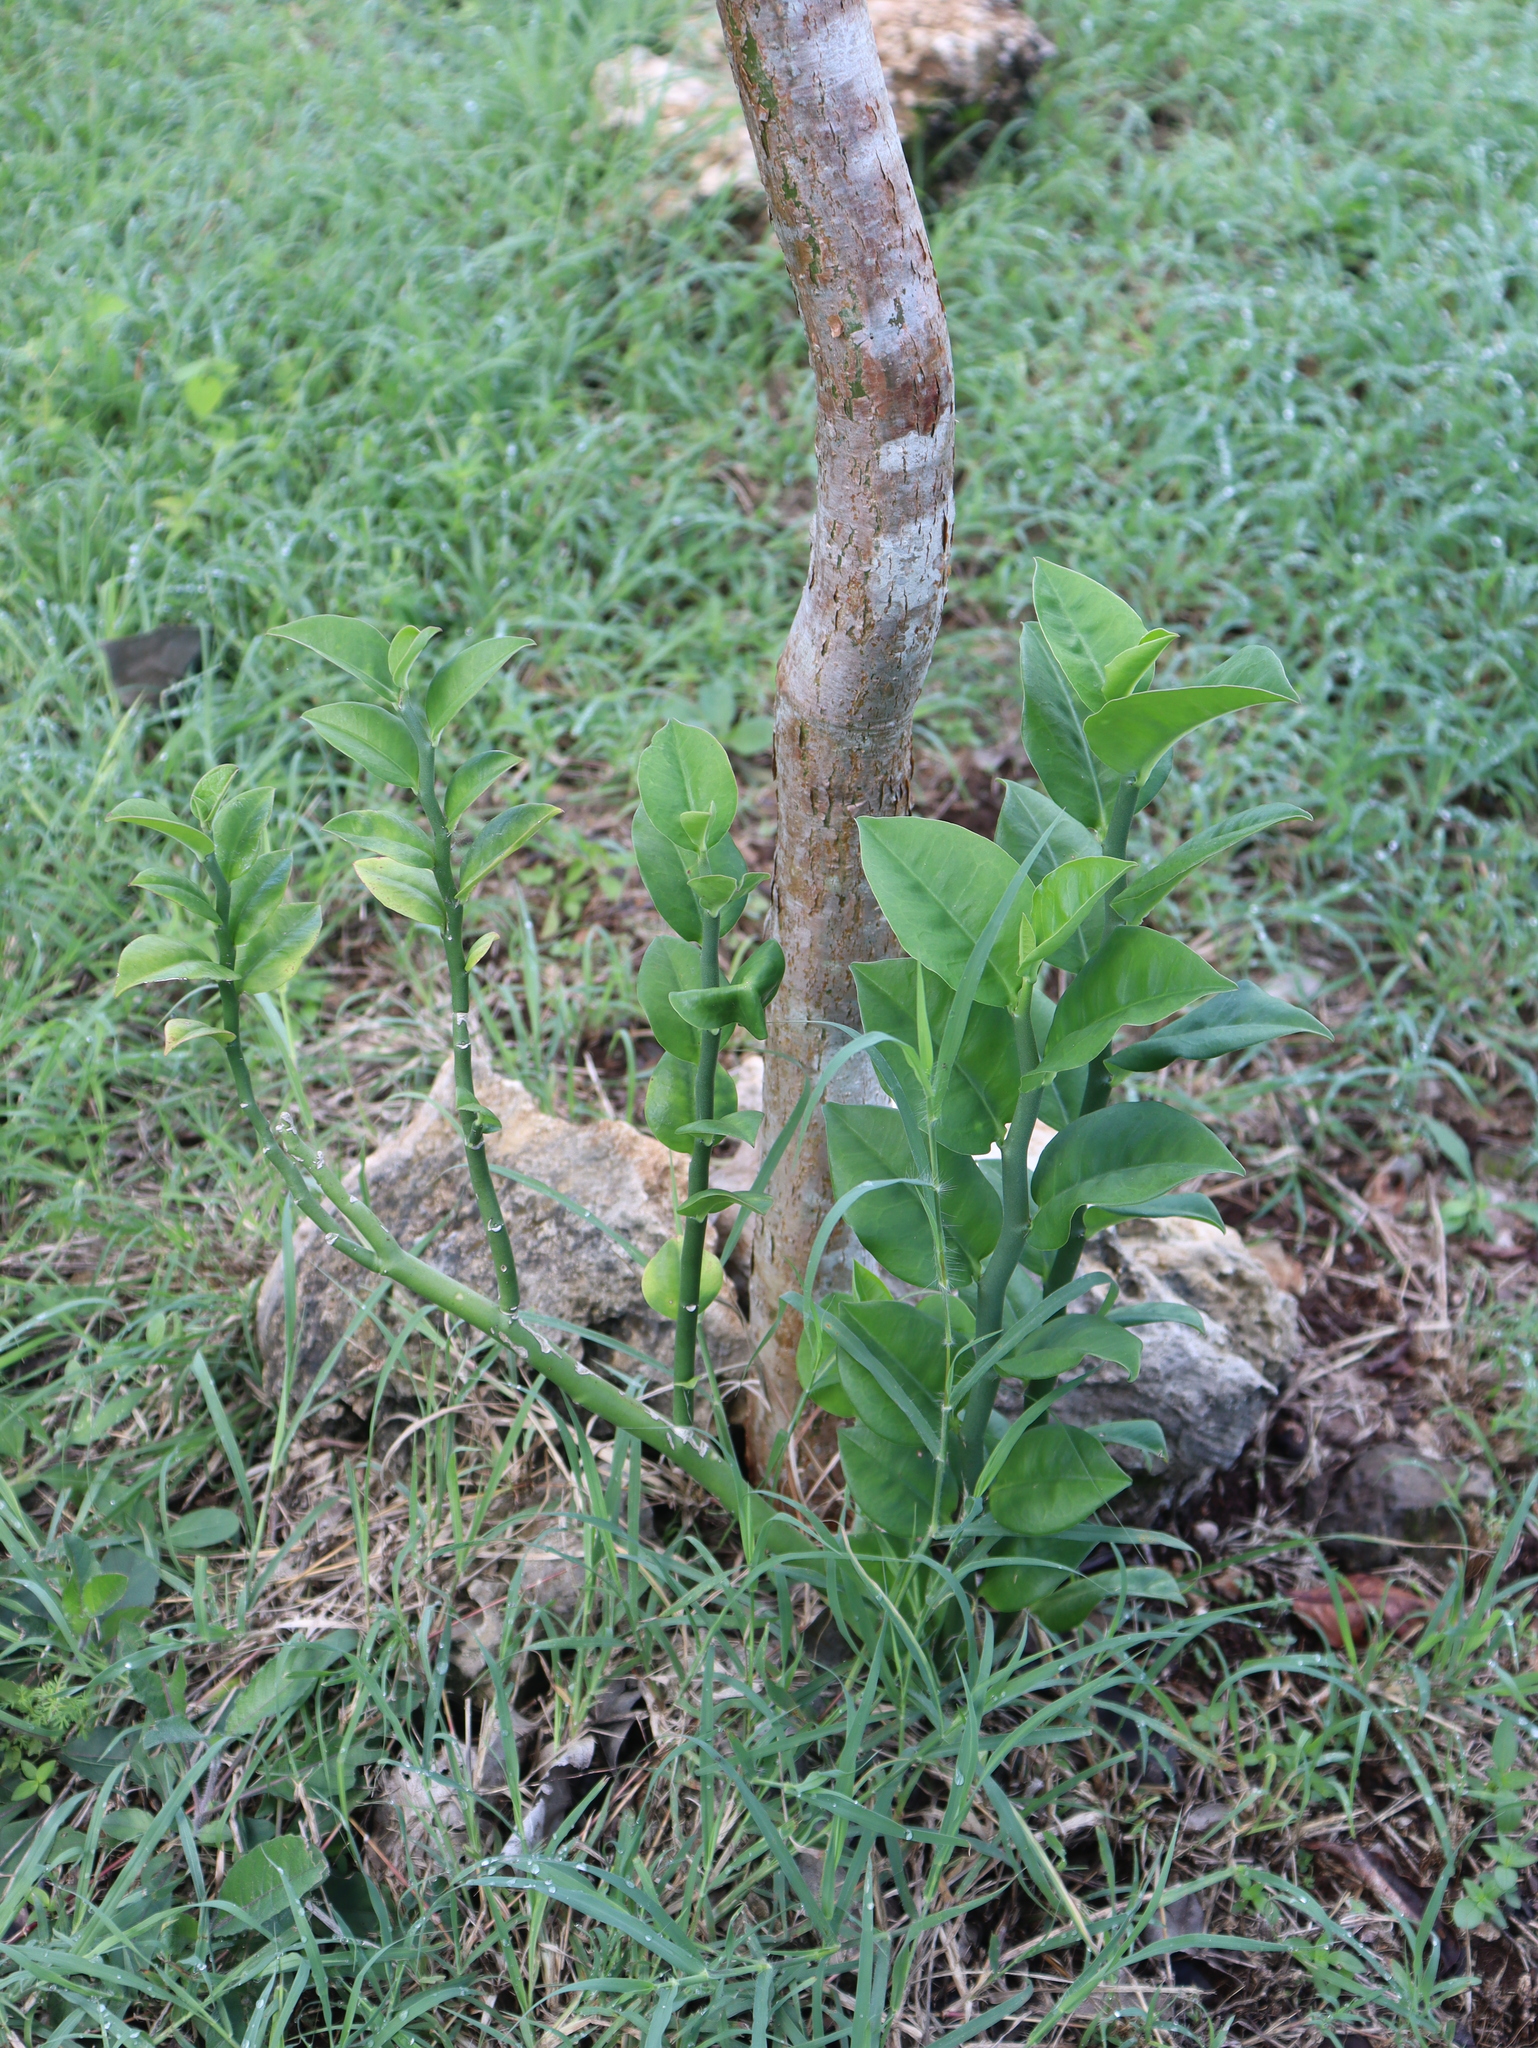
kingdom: Plantae
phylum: Tracheophyta
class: Magnoliopsida
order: Malpighiales
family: Euphorbiaceae
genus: Euphorbia
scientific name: Euphorbia tithymaloides
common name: Slipperplant
